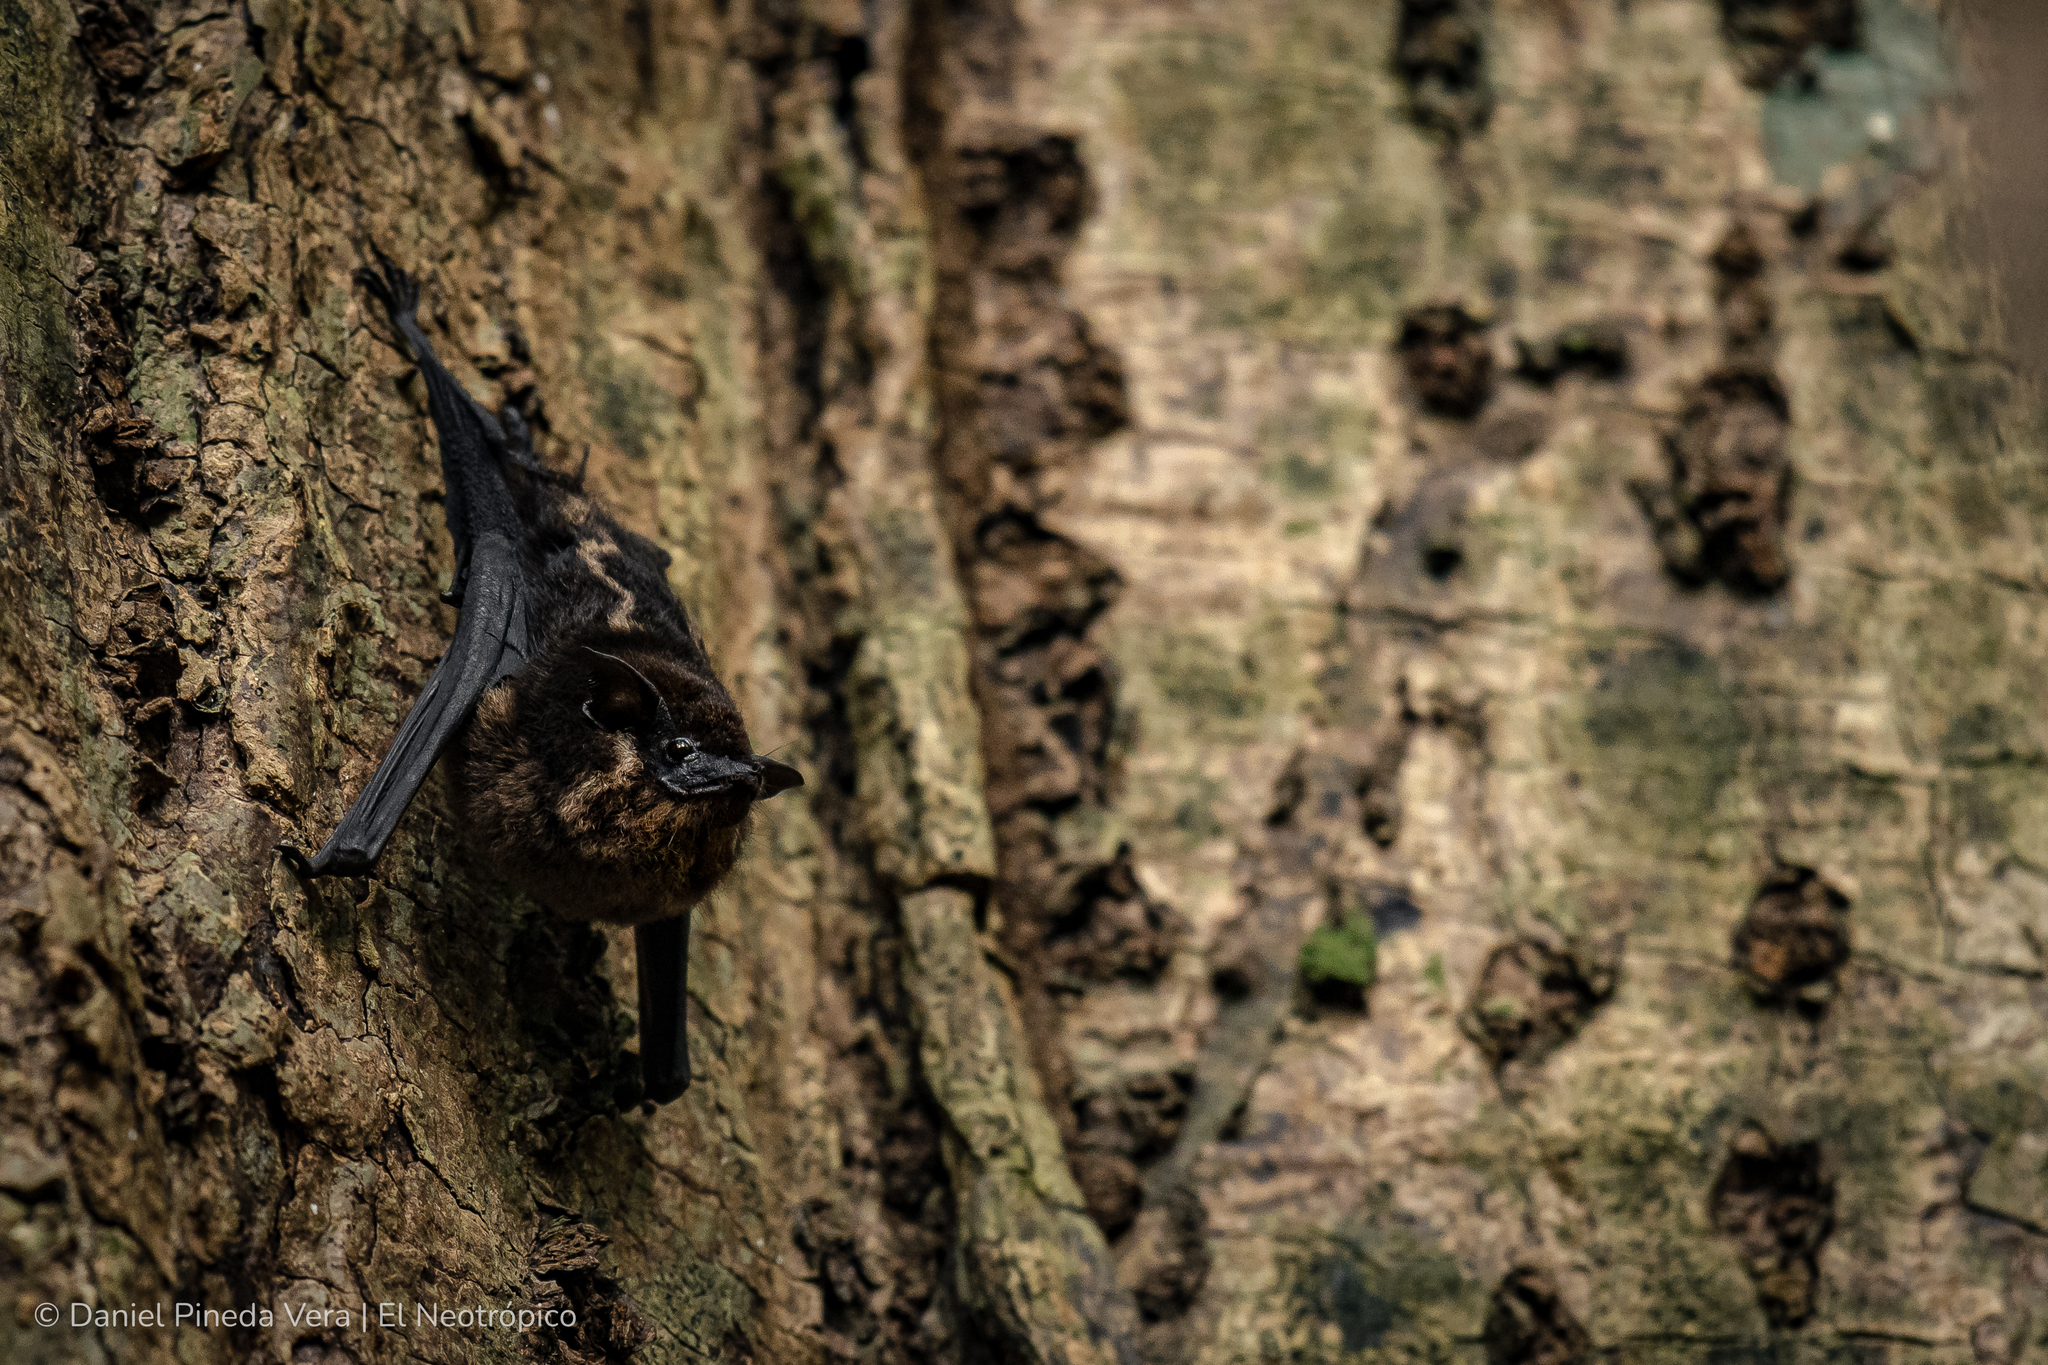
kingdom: Animalia
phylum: Chordata
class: Mammalia
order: Chiroptera
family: Emballonuridae
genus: Saccopteryx
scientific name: Saccopteryx bilineata
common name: Greater sac-winged bat
